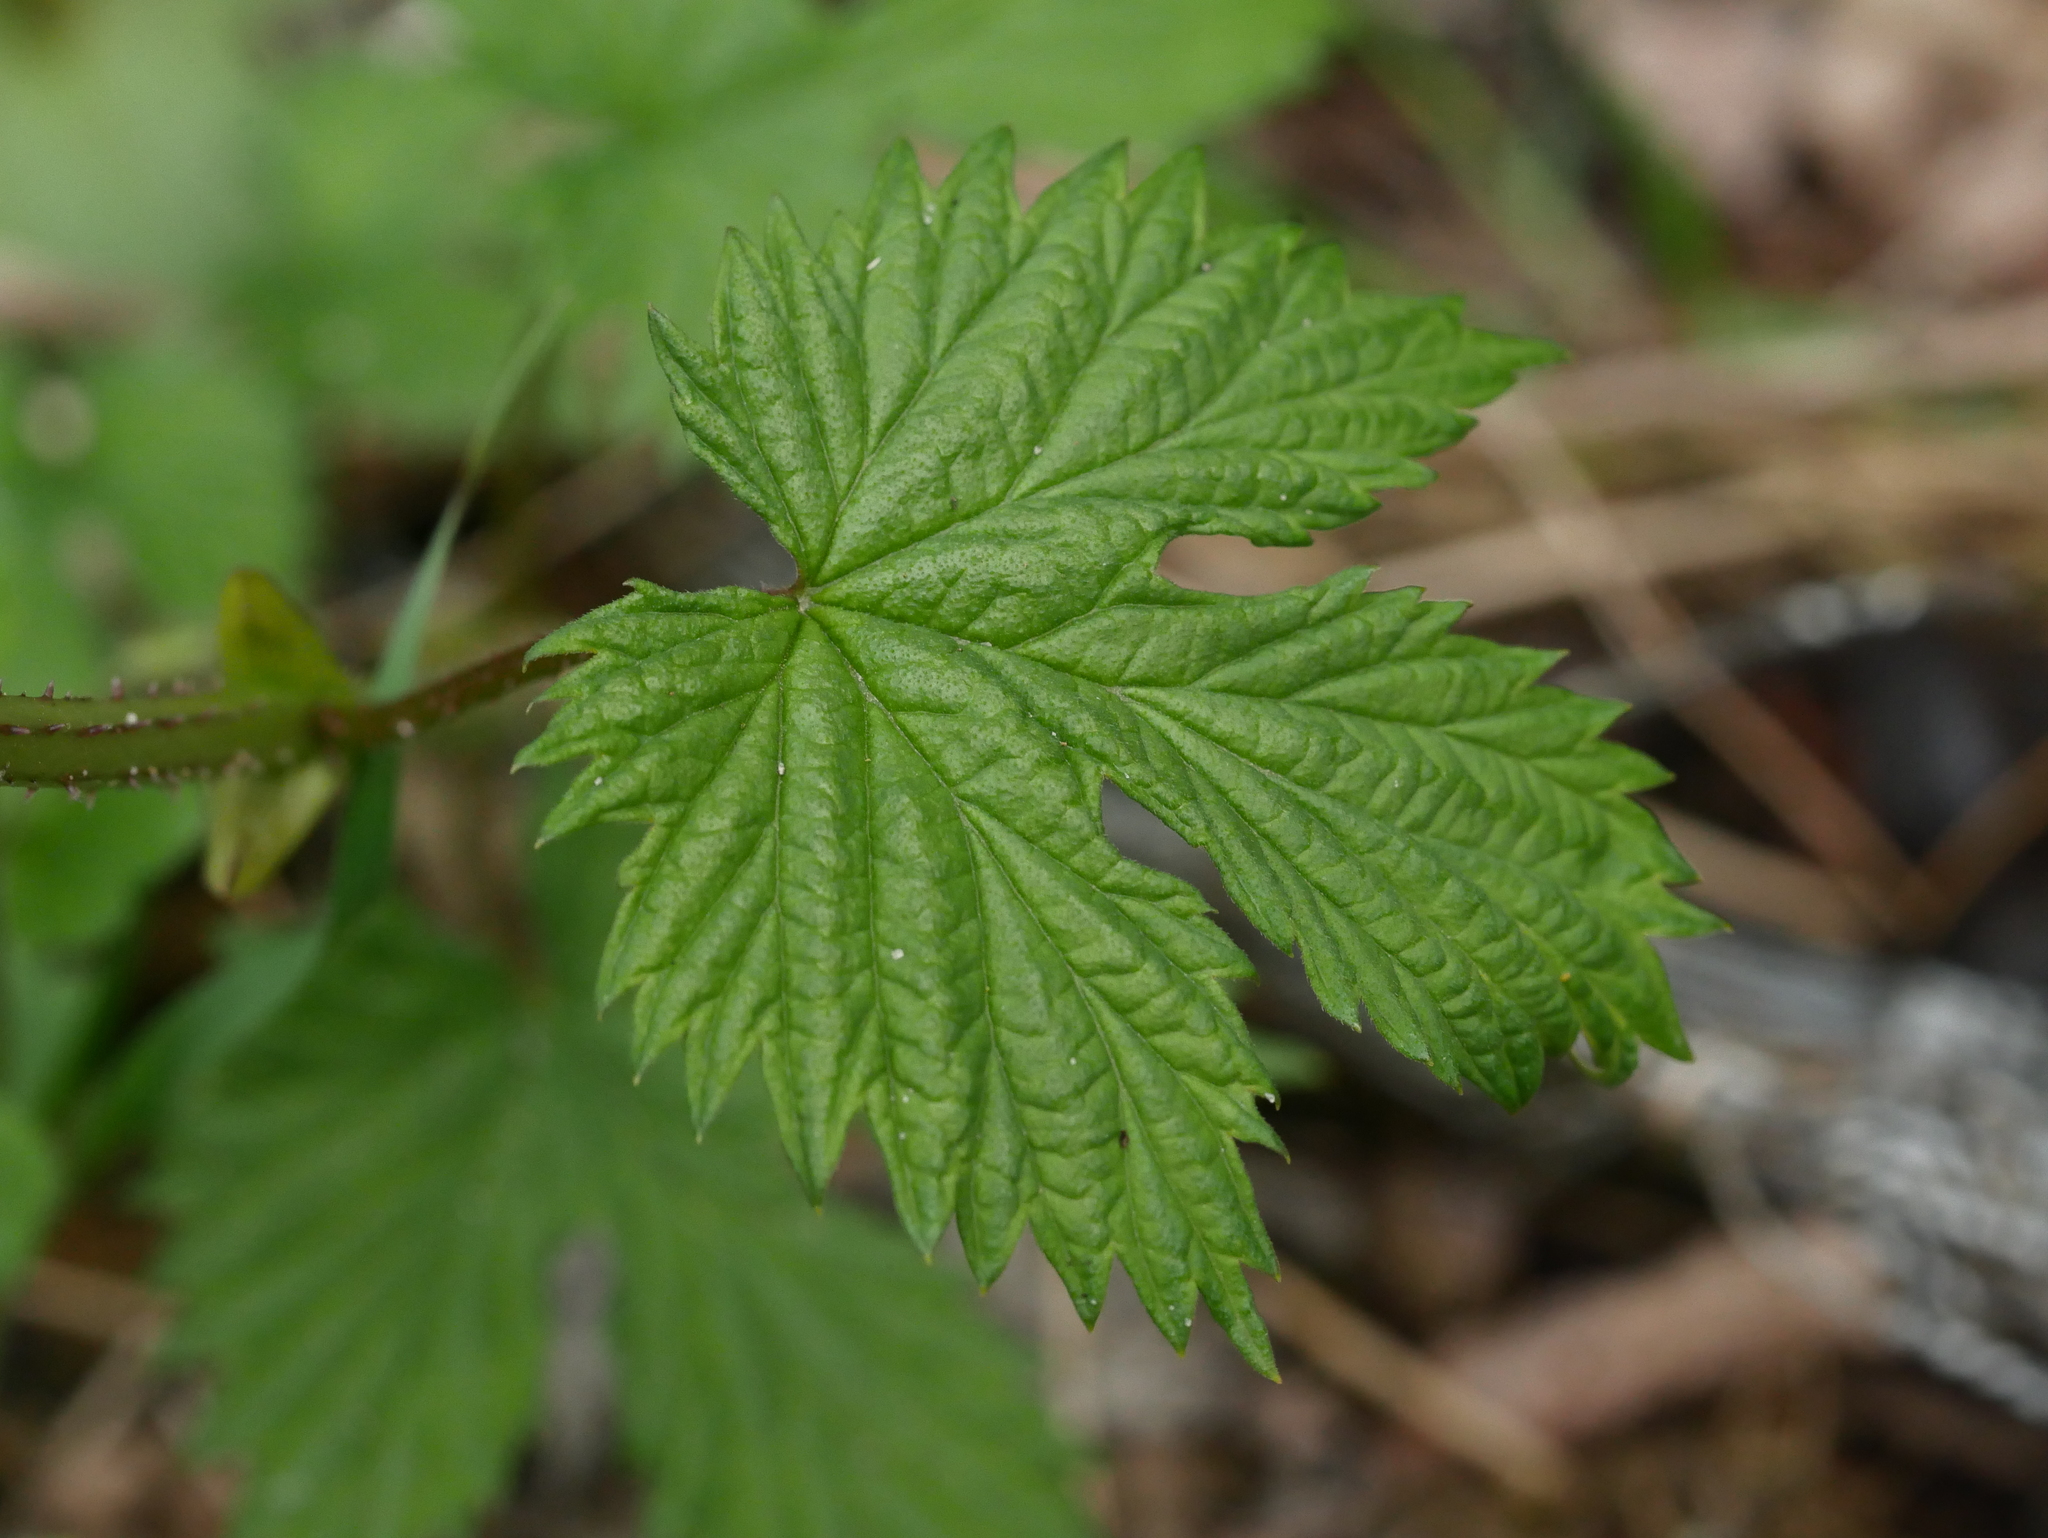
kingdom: Plantae
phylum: Tracheophyta
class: Magnoliopsida
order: Rosales
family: Cannabaceae
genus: Humulus
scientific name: Humulus lupulus
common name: Hop
